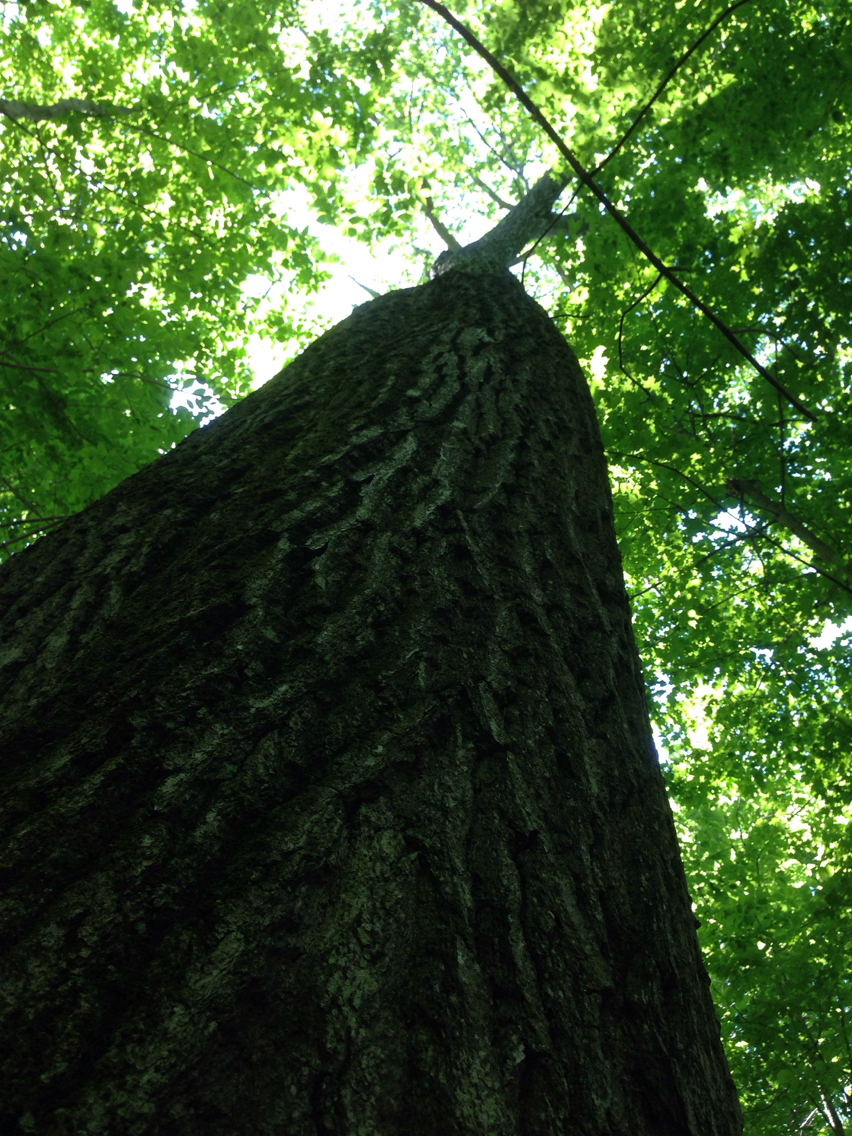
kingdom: Plantae
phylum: Tracheophyta
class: Magnoliopsida
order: Fagales
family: Fagaceae
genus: Quercus
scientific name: Quercus rubra
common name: Red oak
